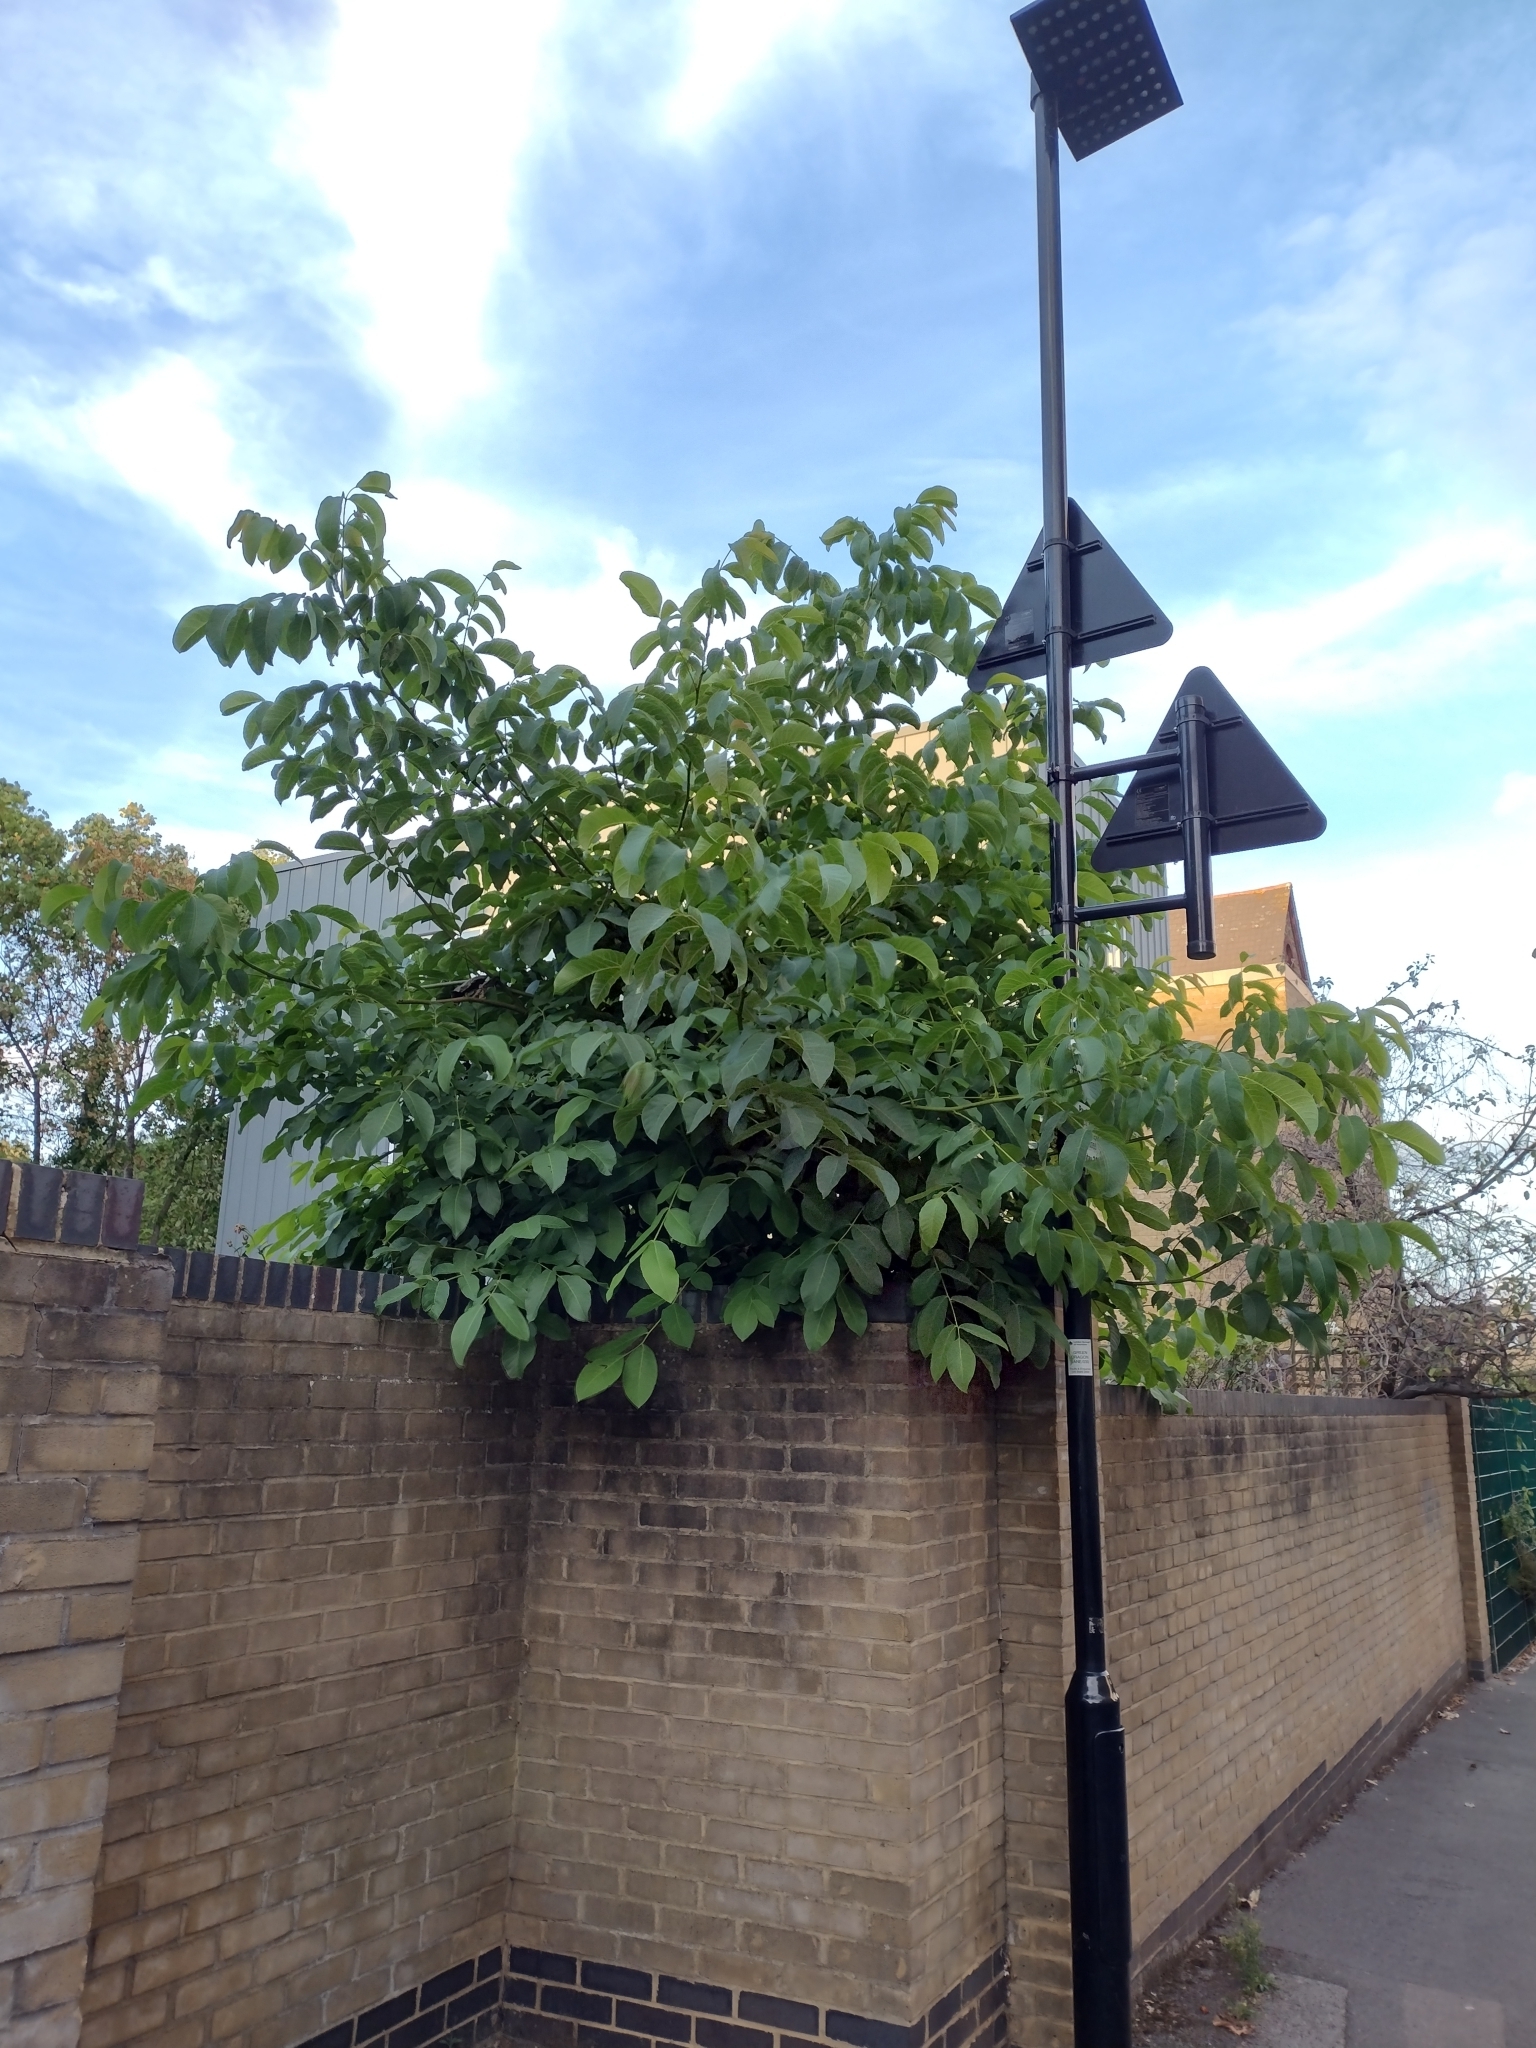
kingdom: Plantae
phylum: Tracheophyta
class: Magnoliopsida
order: Fagales
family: Juglandaceae
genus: Juglans
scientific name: Juglans regia
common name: Walnut
